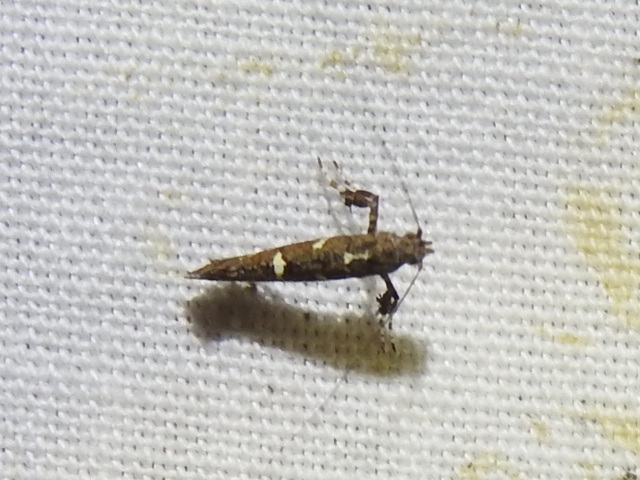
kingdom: Animalia
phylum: Arthropoda
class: Insecta
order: Lepidoptera
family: Gracillariidae
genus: Caloptilia
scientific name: Caloptilia triadicae
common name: Tallow leaf roller
